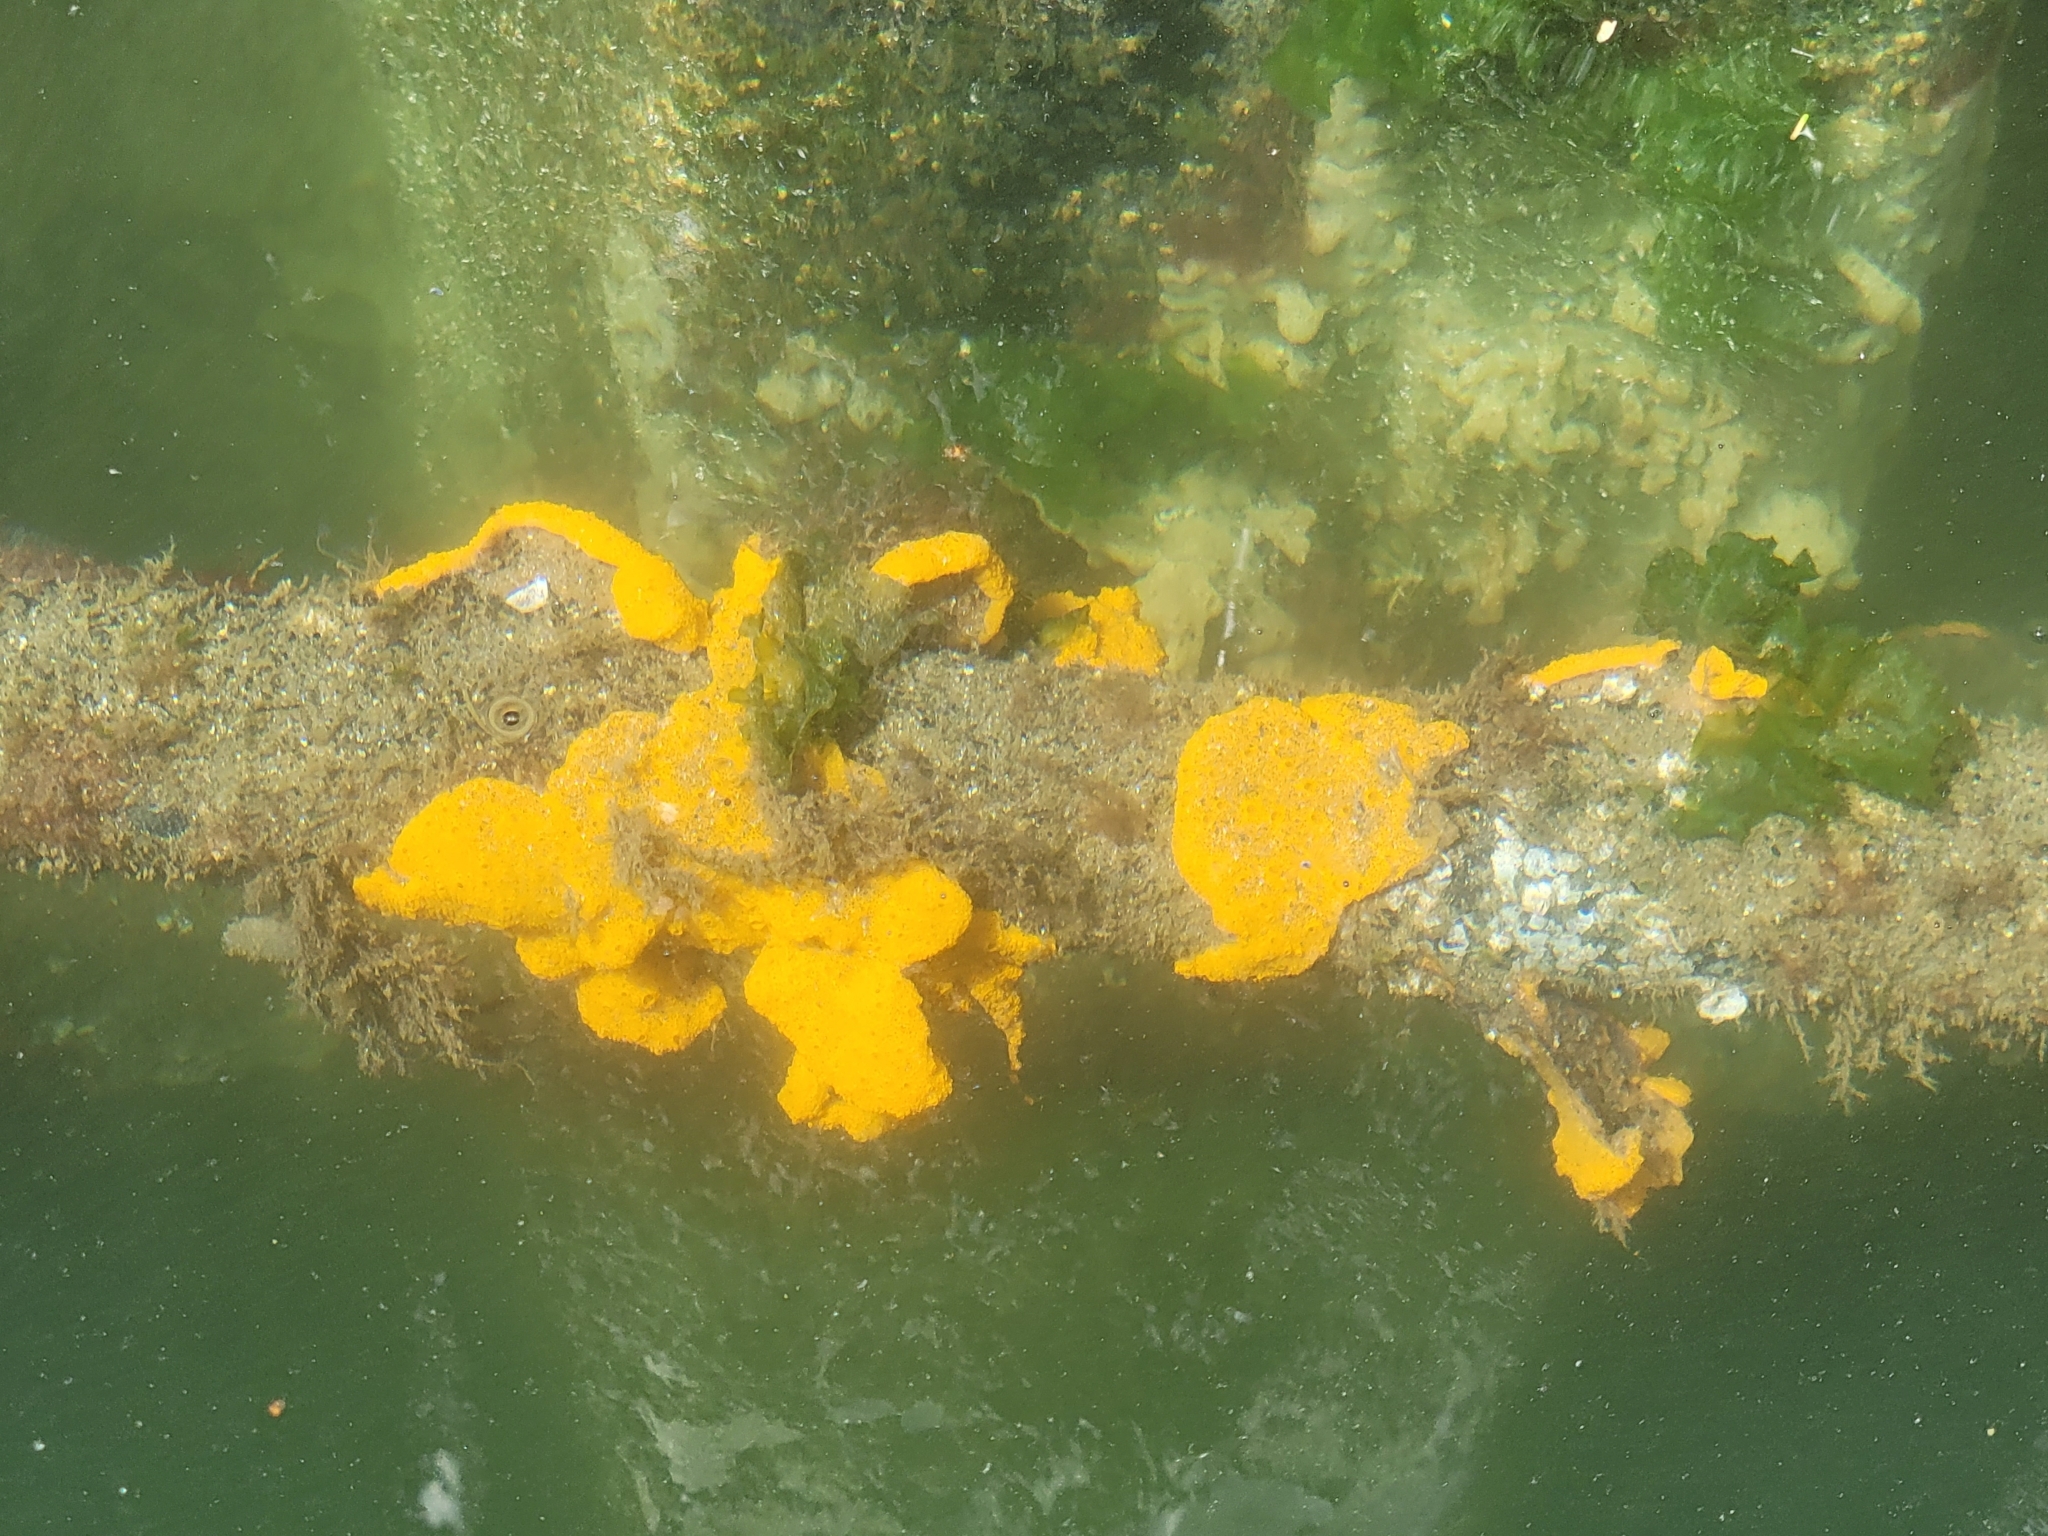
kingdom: Animalia
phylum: Chordata
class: Ascidiacea
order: Stolidobranchia
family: Styelidae
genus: Botrylloides
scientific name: Botrylloides violaceus
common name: Colonial sea squirt
